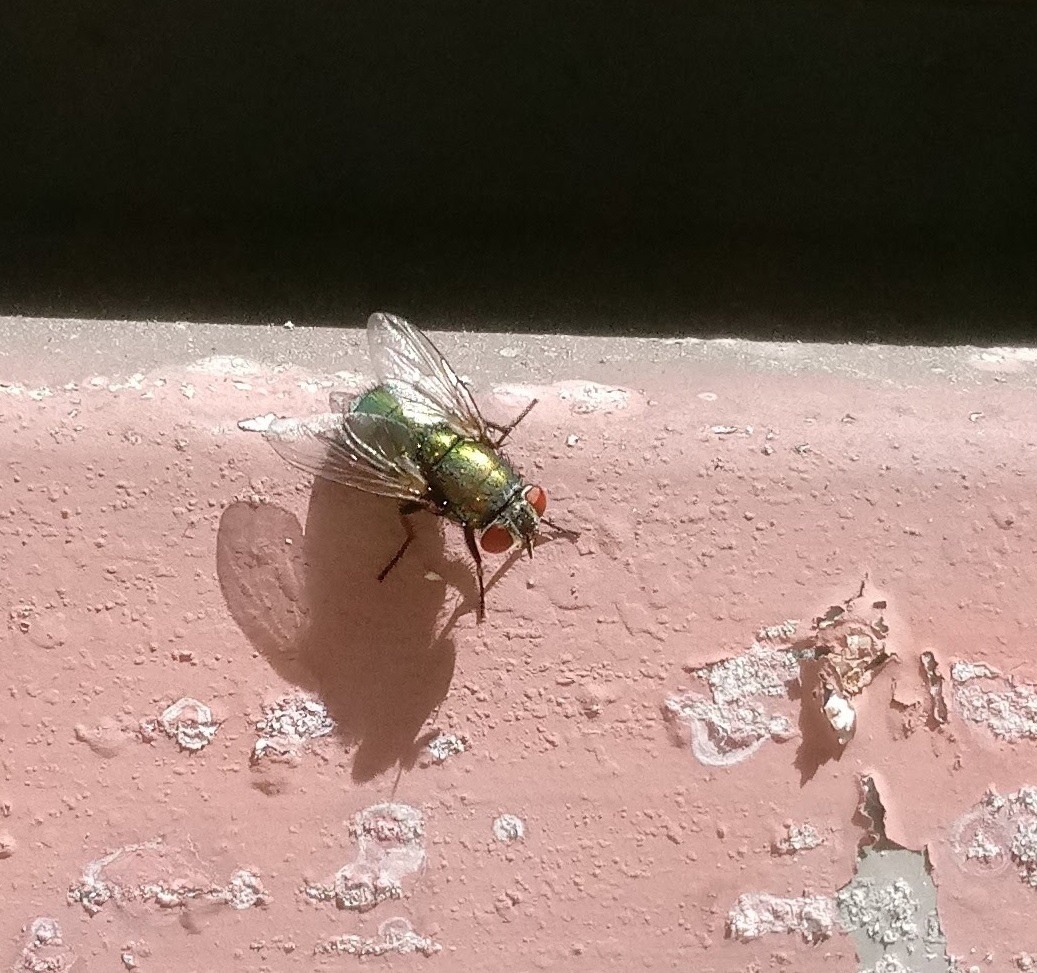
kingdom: Animalia
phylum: Arthropoda
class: Insecta
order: Diptera
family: Calliphoridae
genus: Lucilia
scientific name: Lucilia sericata
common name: Blow fly
